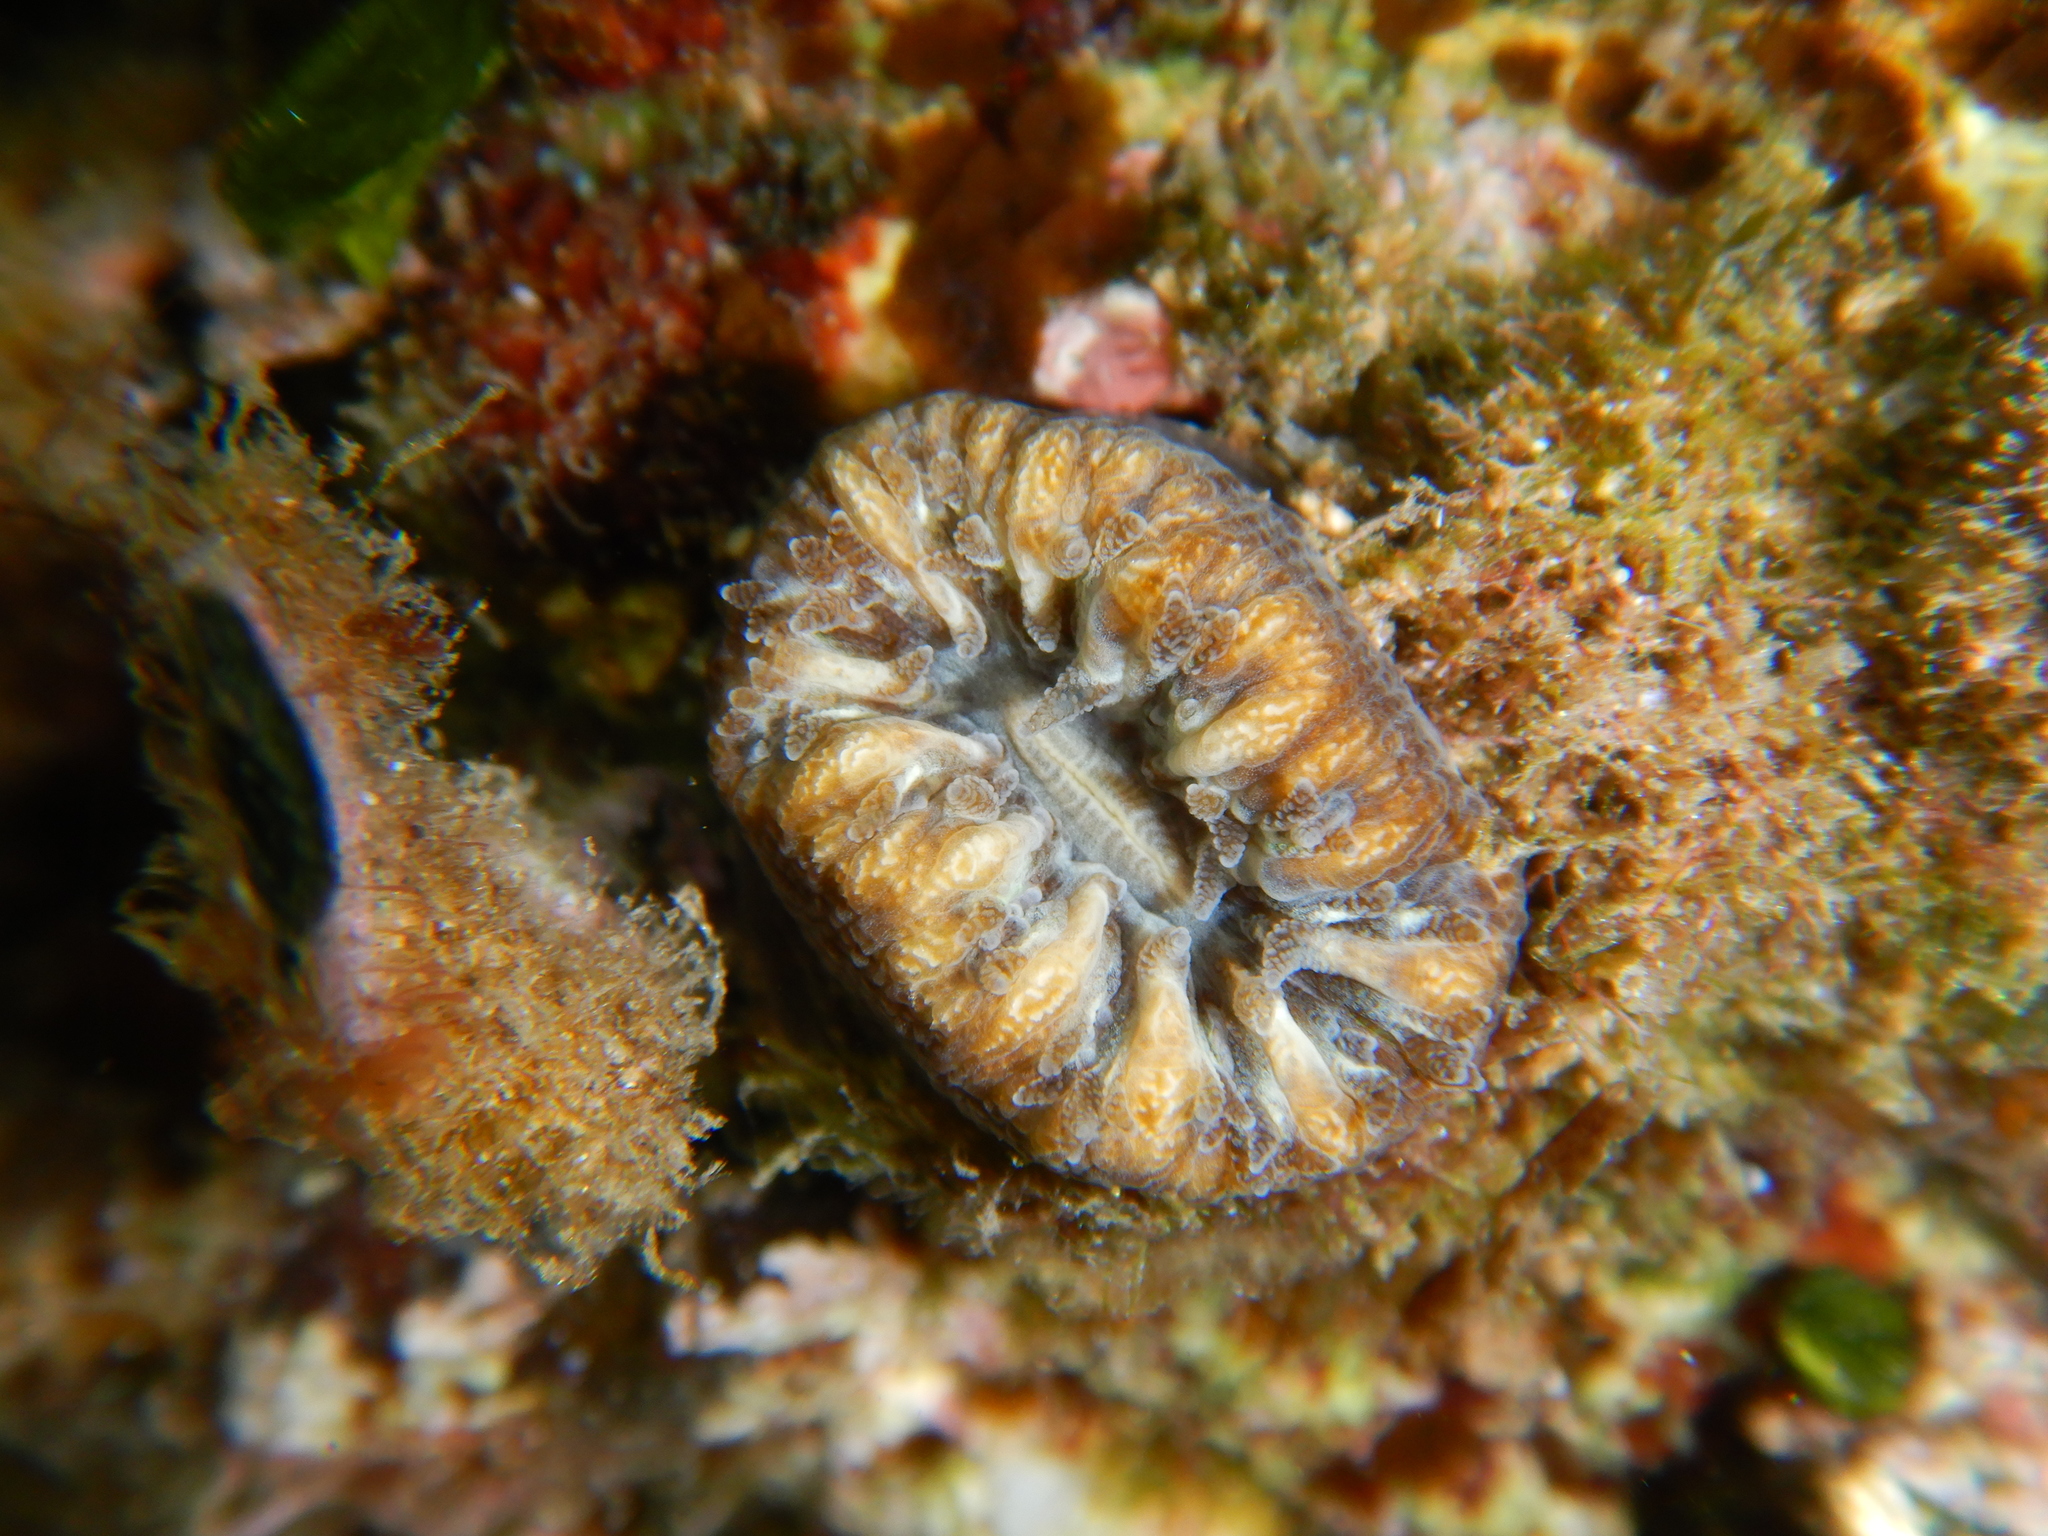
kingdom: Animalia
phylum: Cnidaria
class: Anthozoa
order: Scleractinia
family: Dendrophylliidae
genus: Balanophyllia
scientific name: Balanophyllia europaea
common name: Scarlet coral
